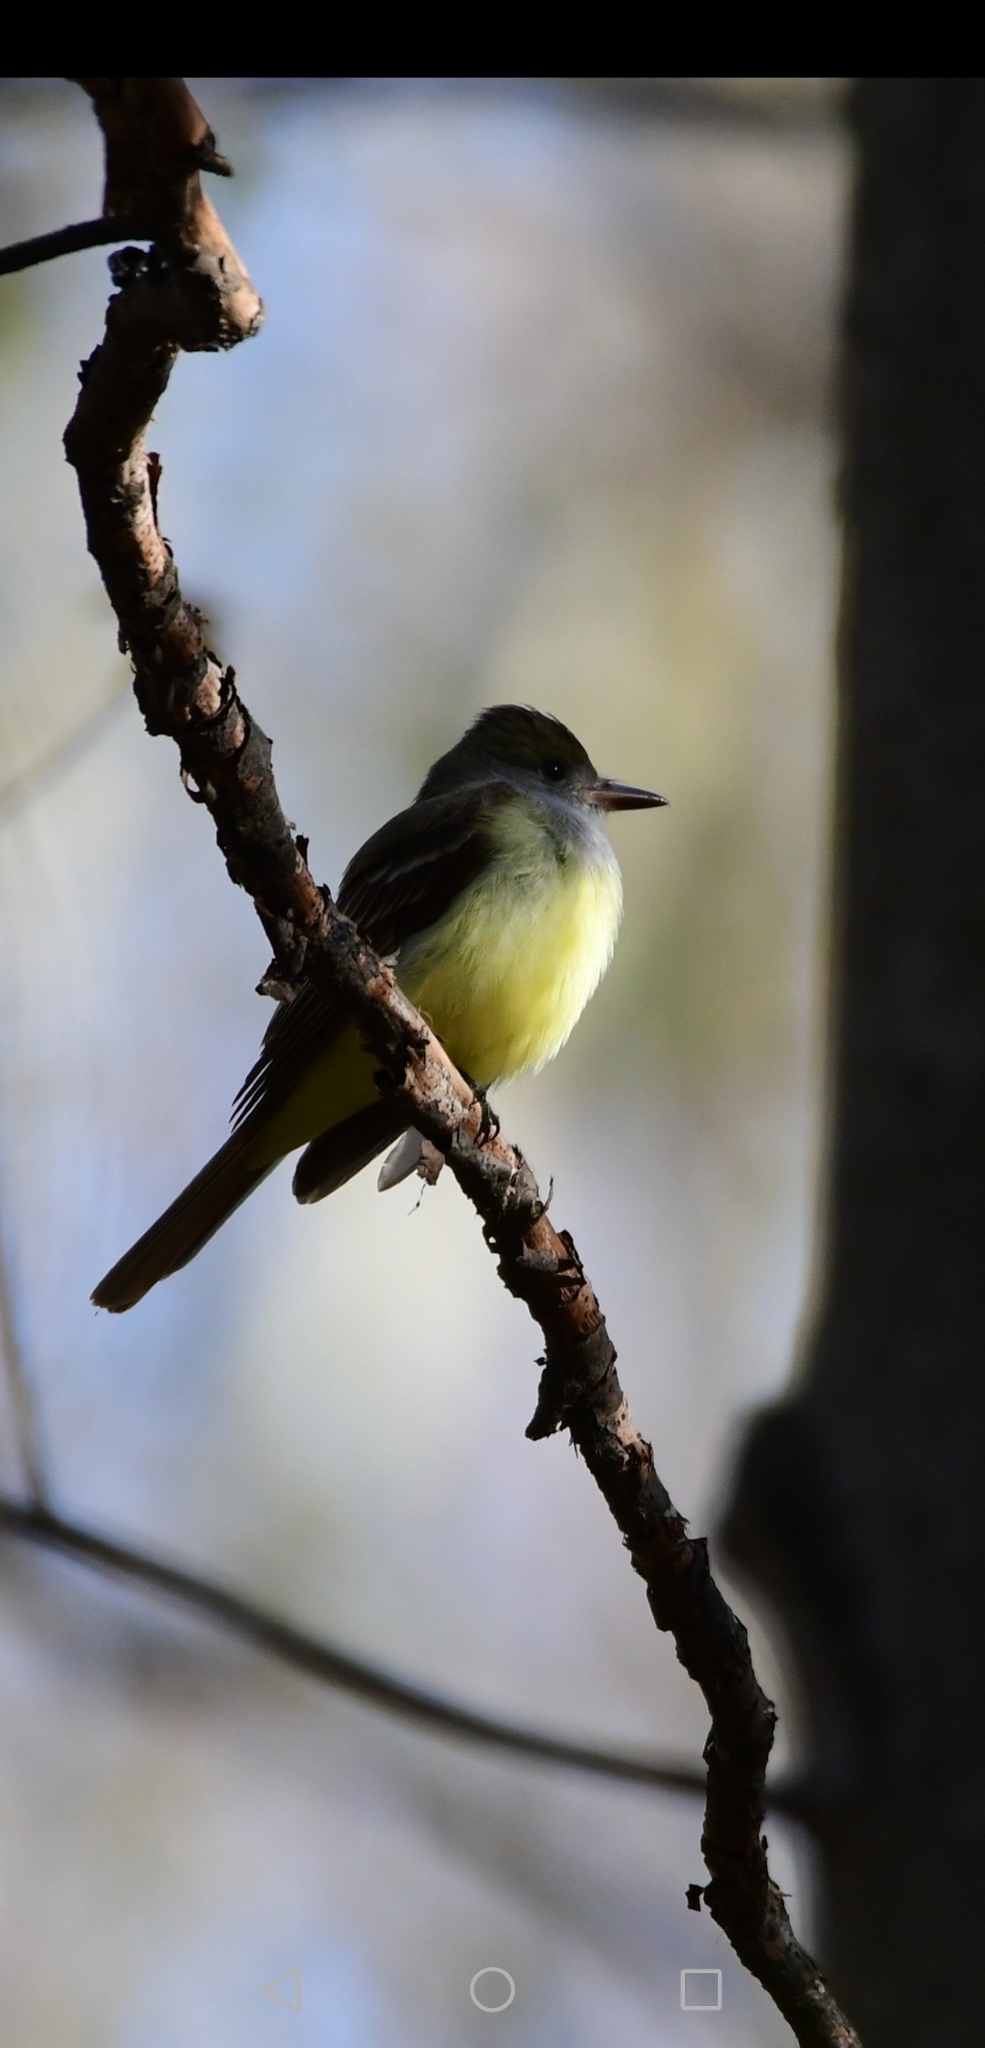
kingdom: Animalia
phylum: Chordata
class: Aves
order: Passeriformes
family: Tyrannidae
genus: Myiarchus
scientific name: Myiarchus crinitus
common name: Great crested flycatcher
